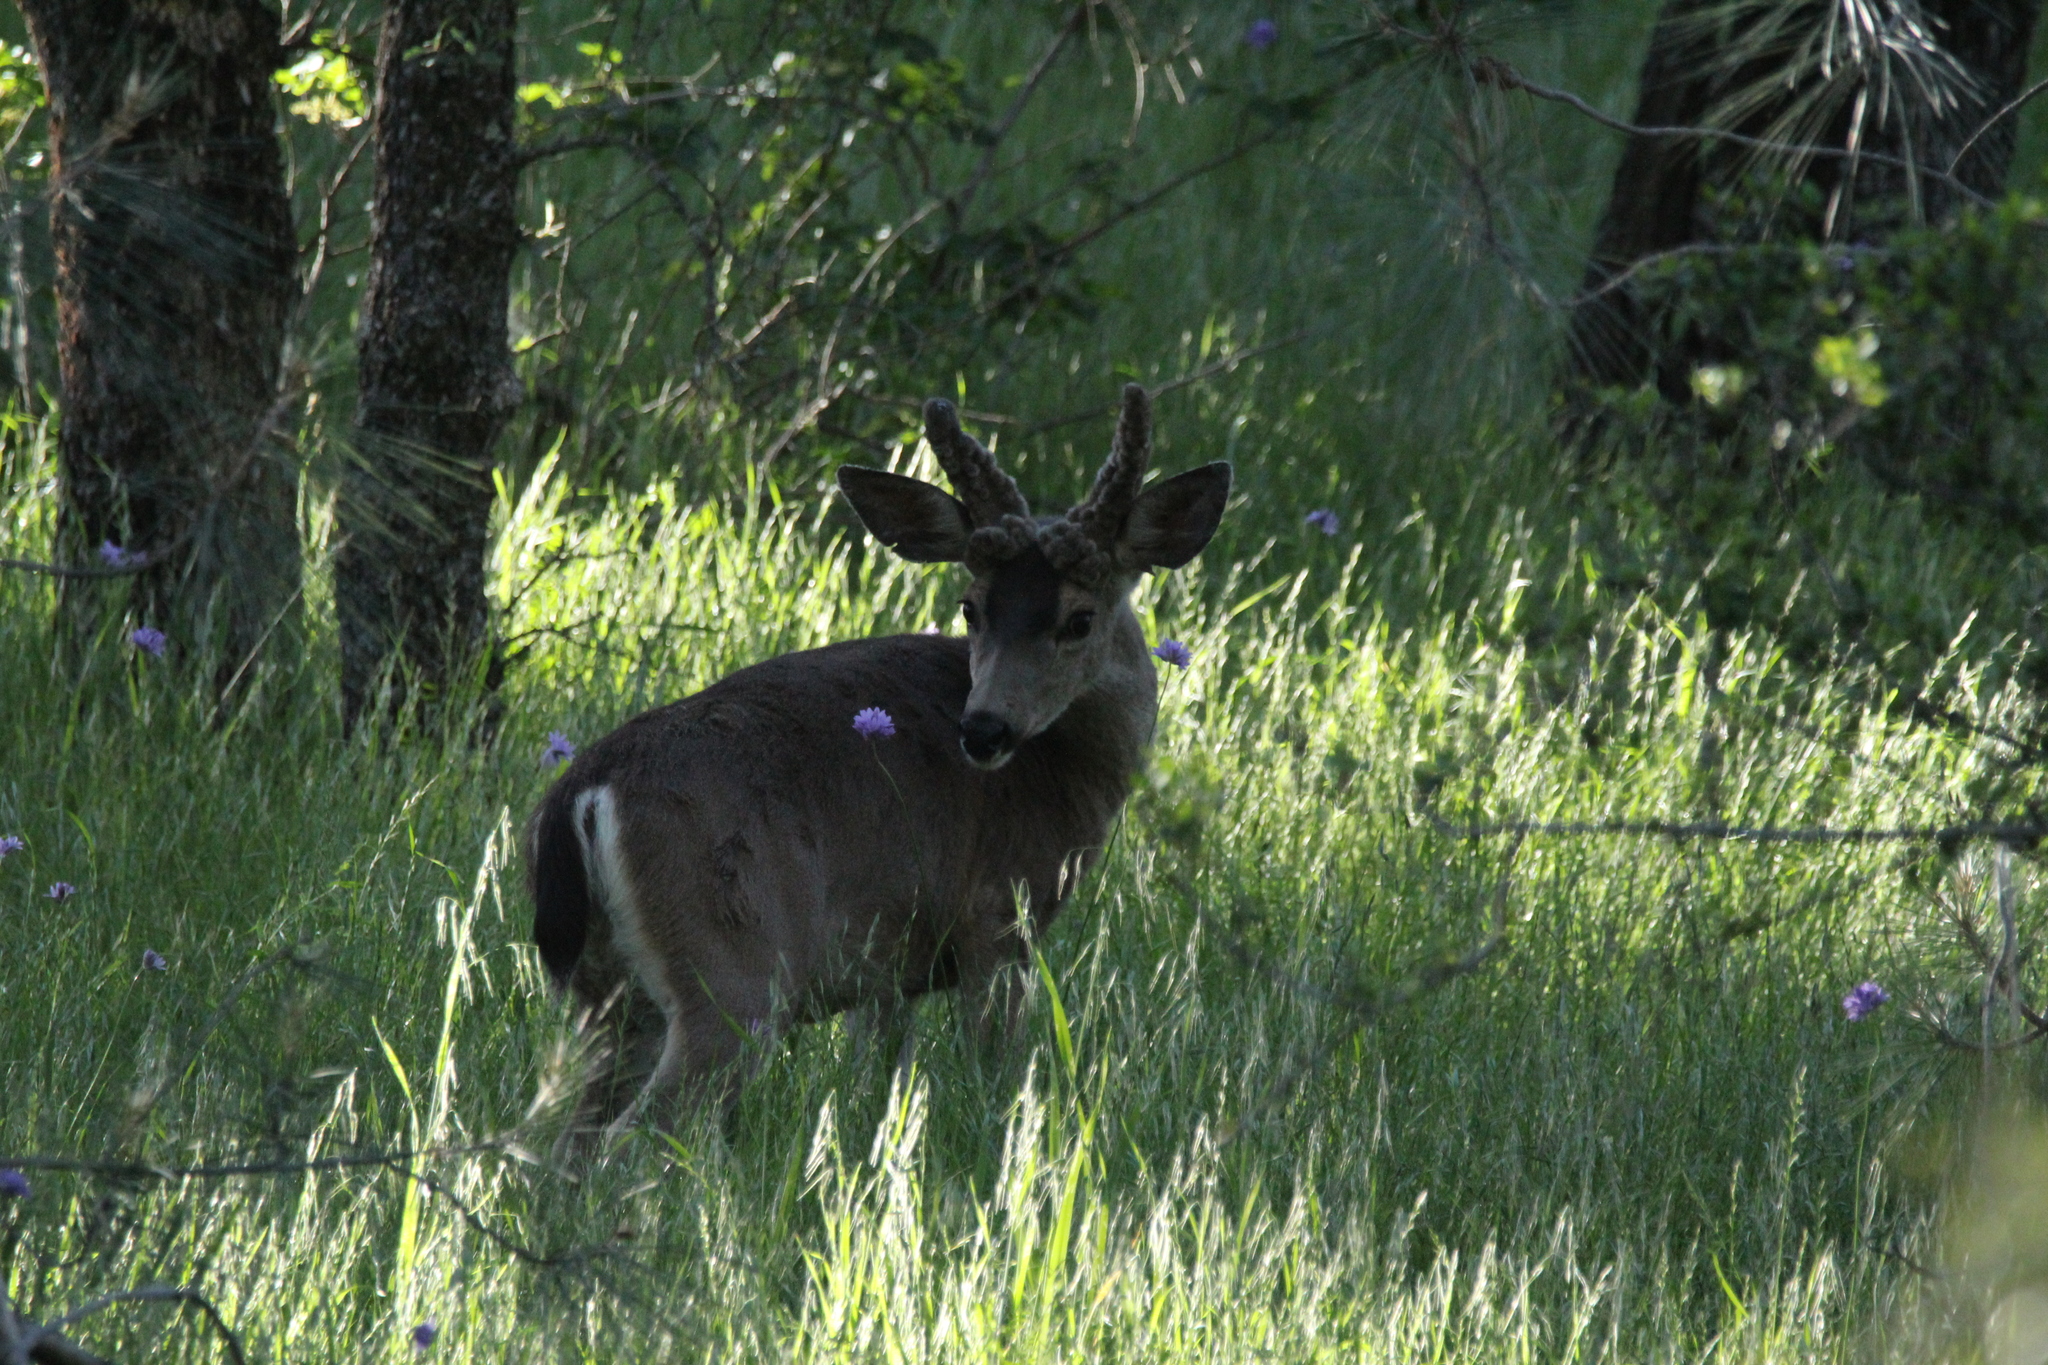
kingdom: Animalia
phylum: Chordata
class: Mammalia
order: Artiodactyla
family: Cervidae
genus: Odocoileus
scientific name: Odocoileus hemionus
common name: Mule deer
